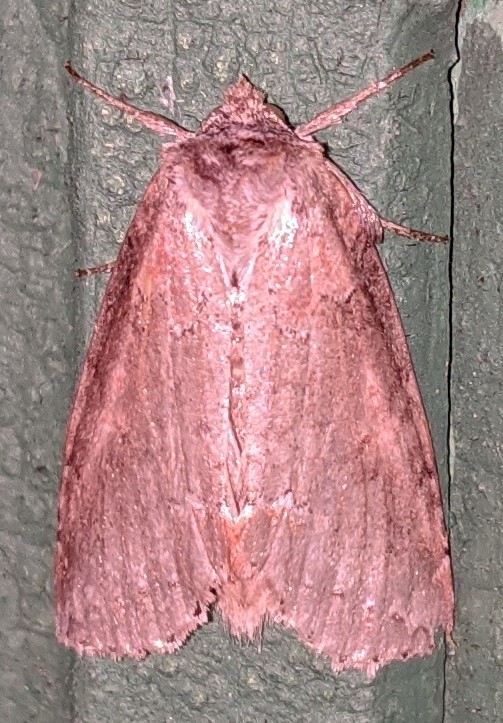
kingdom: Animalia
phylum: Arthropoda
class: Insecta
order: Lepidoptera
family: Drepanidae
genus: Pseudothyatira
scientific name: Pseudothyatira cymatophoroides
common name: Tufted thyatirid moth
